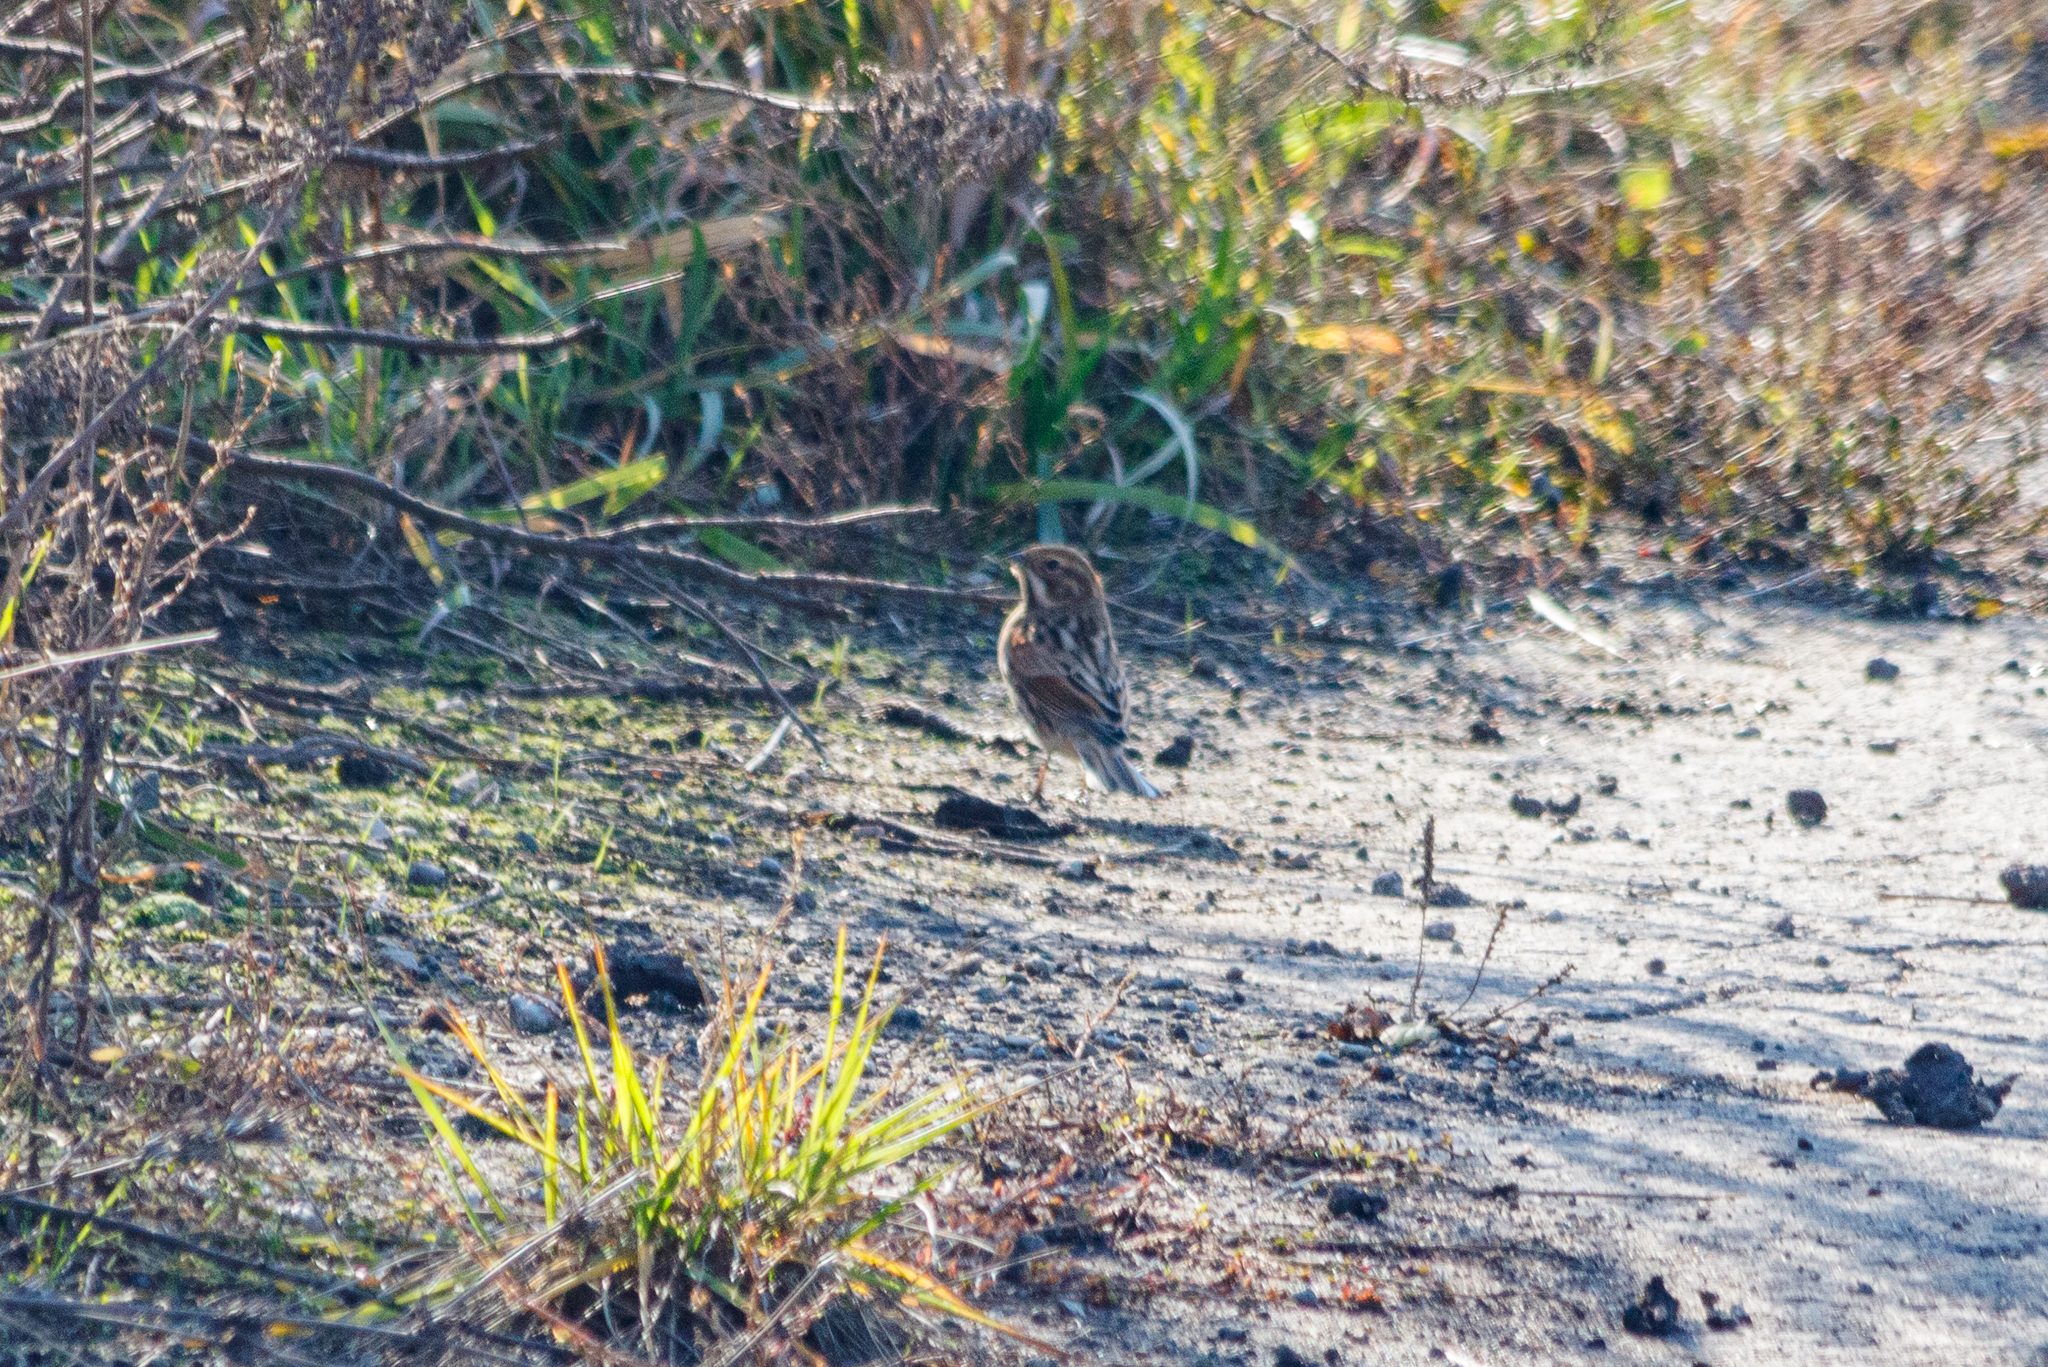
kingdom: Animalia
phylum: Chordata
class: Aves
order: Passeriformes
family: Emberizidae
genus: Emberiza
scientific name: Emberiza schoeniclus
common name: Reed bunting
